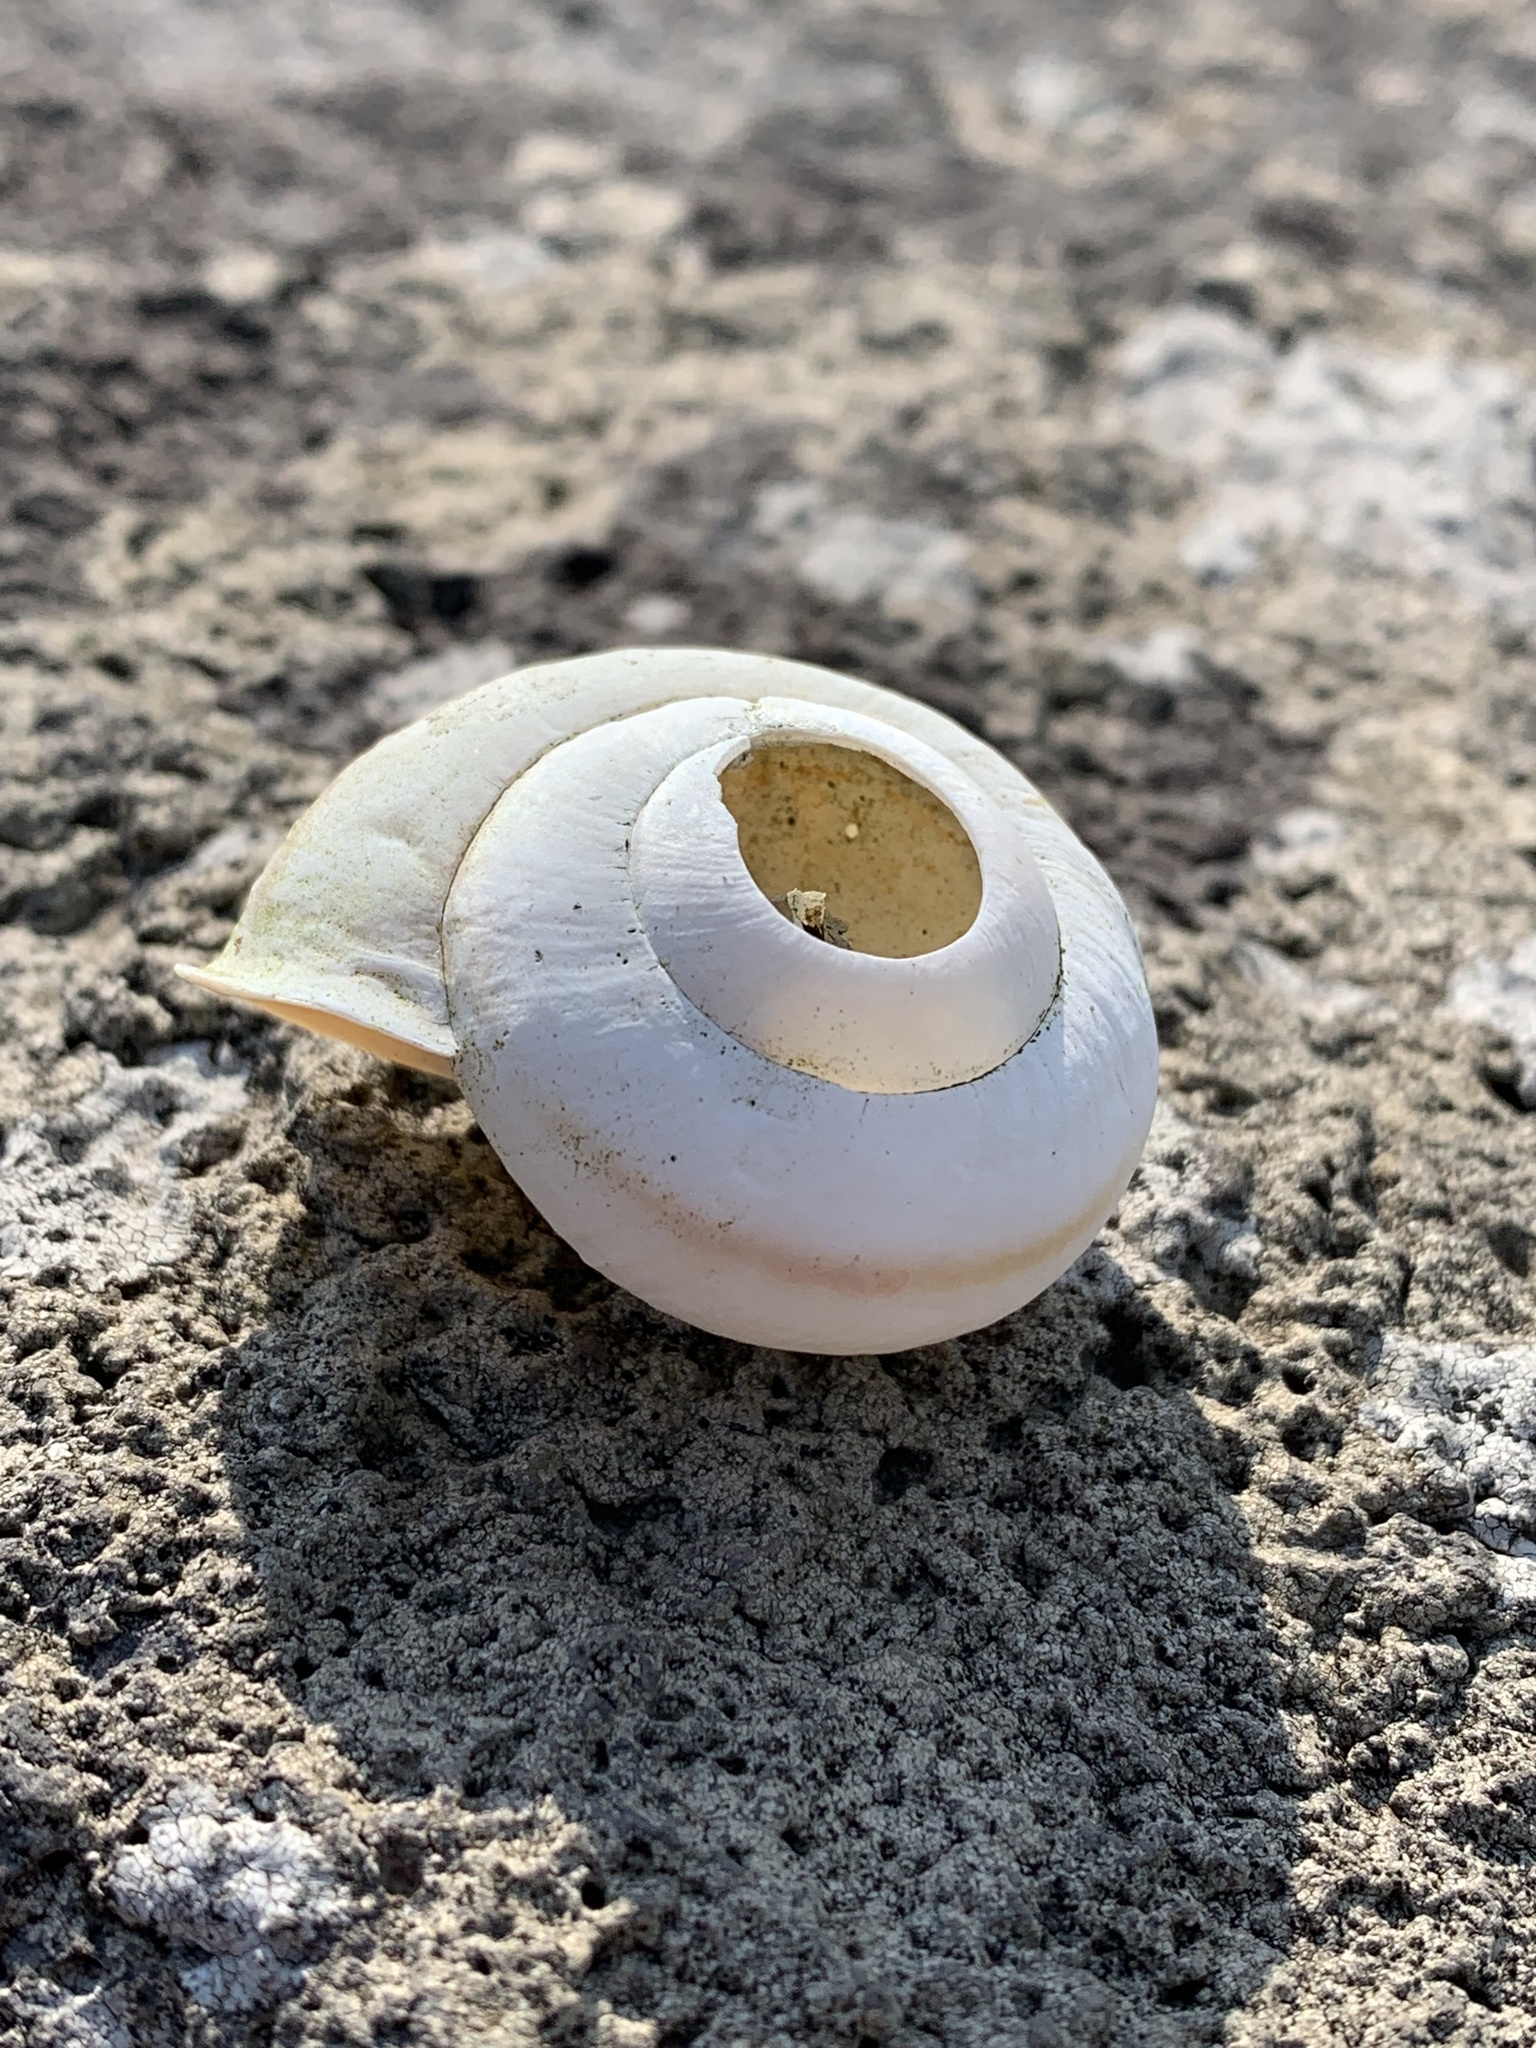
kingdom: Animalia
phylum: Mollusca
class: Gastropoda
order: Stylommatophora
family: Camaenidae
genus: Euhadra
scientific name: Euhadra quaesita
